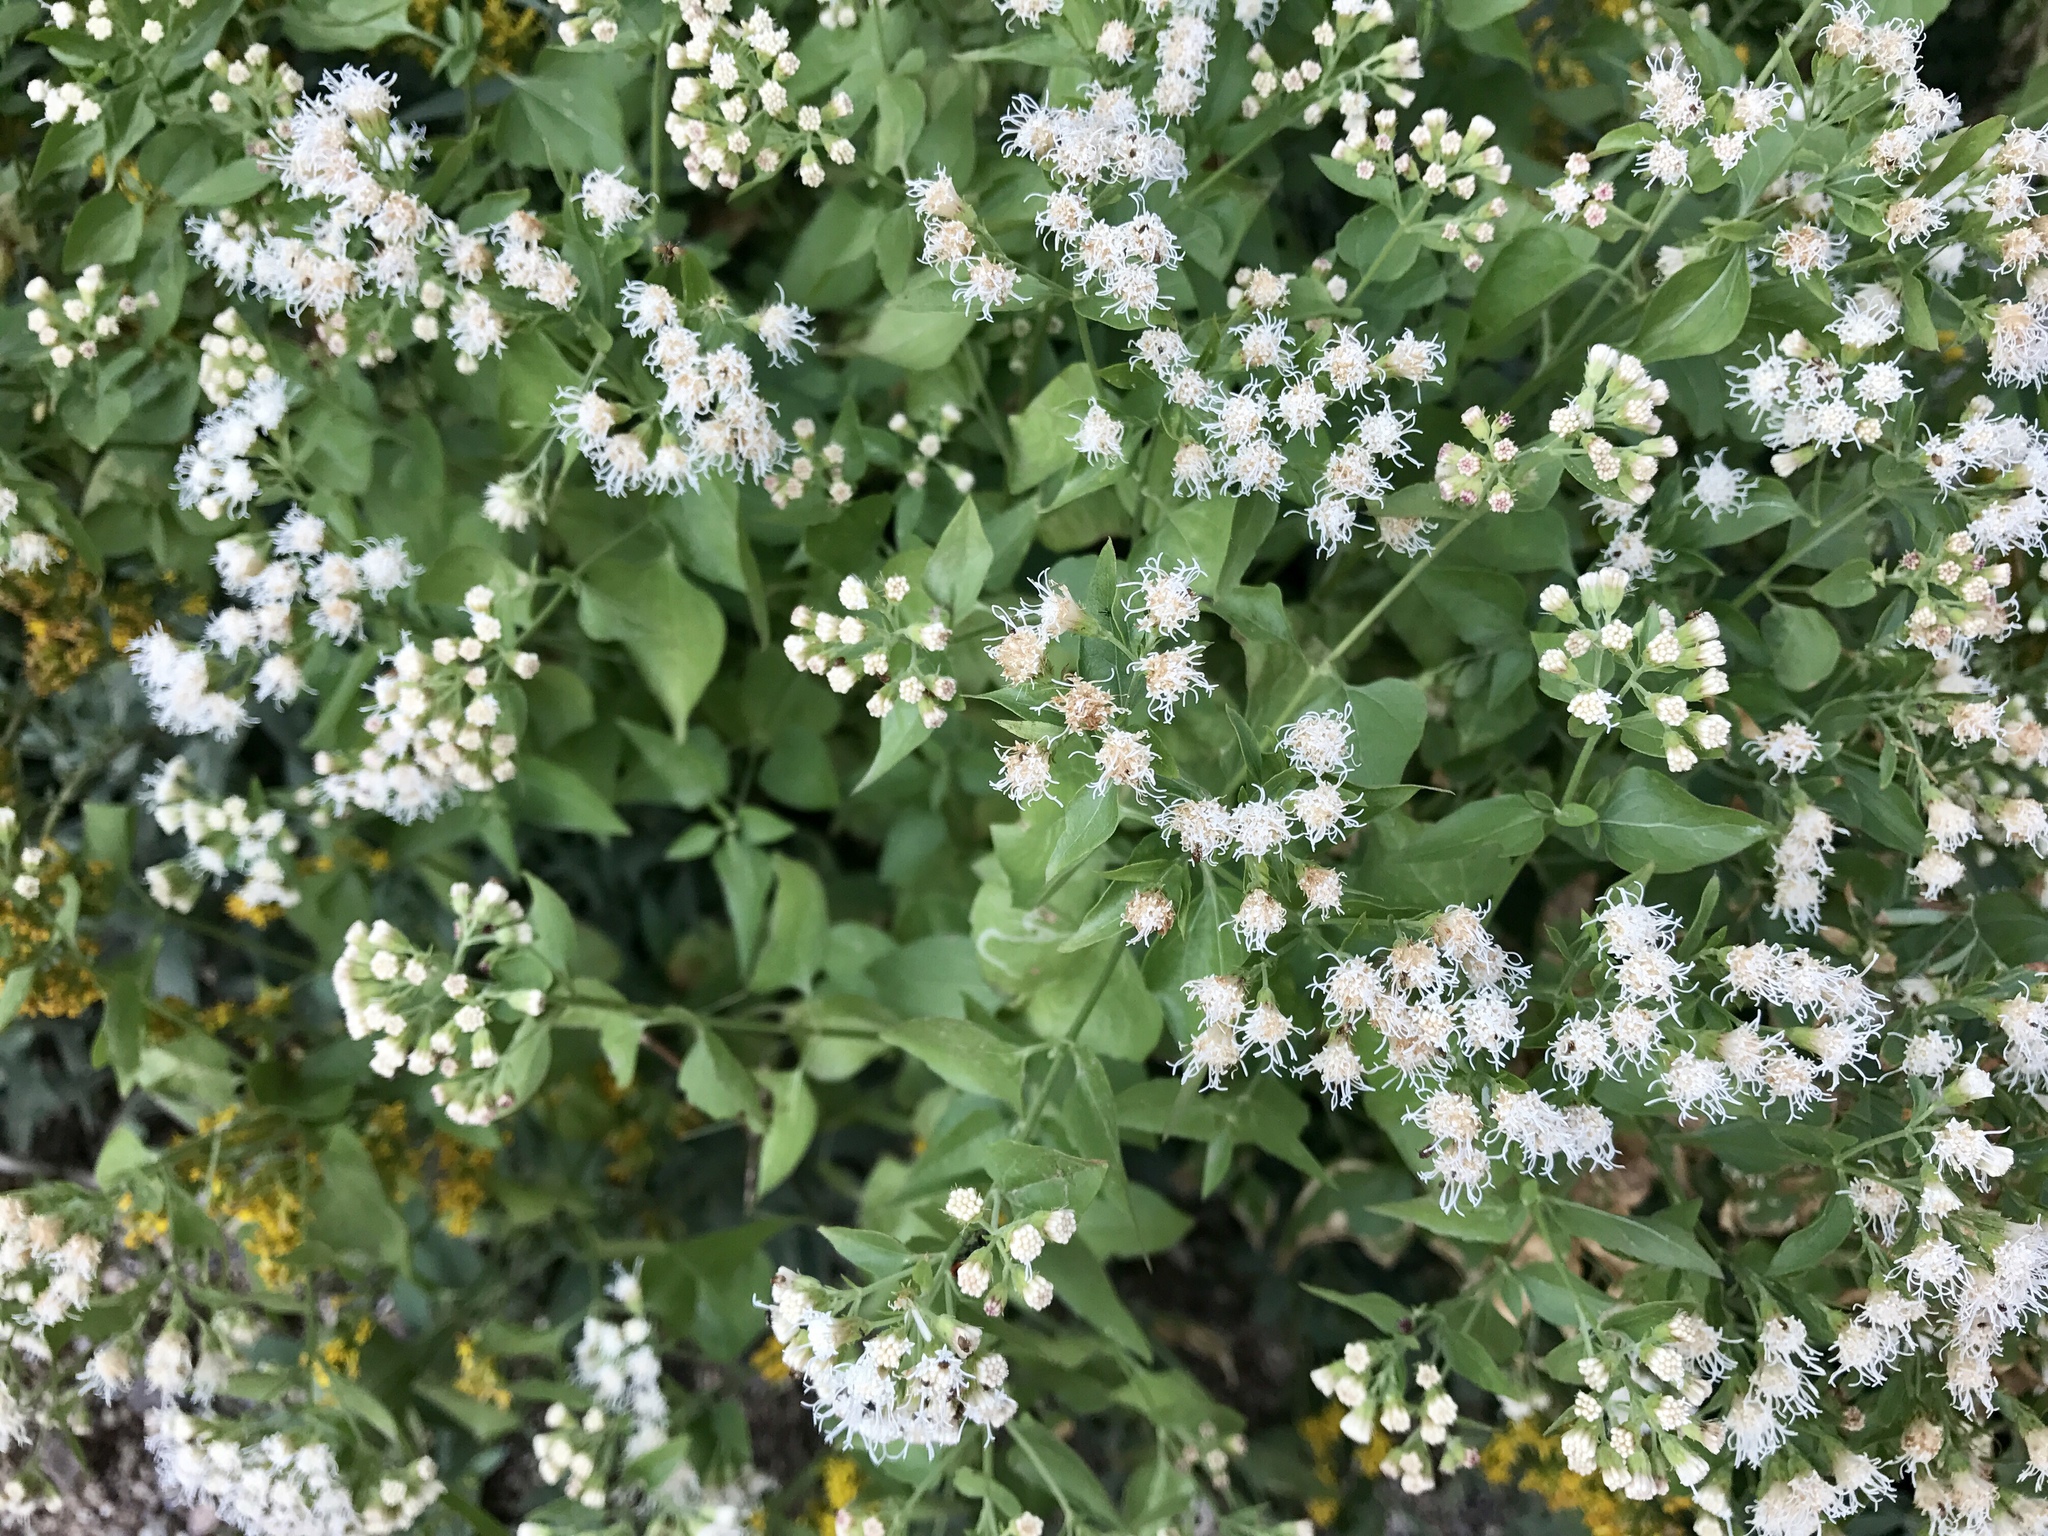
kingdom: Plantae
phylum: Tracheophyta
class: Magnoliopsida
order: Asterales
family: Asteraceae
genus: Ageratina
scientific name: Ageratina herbacea
